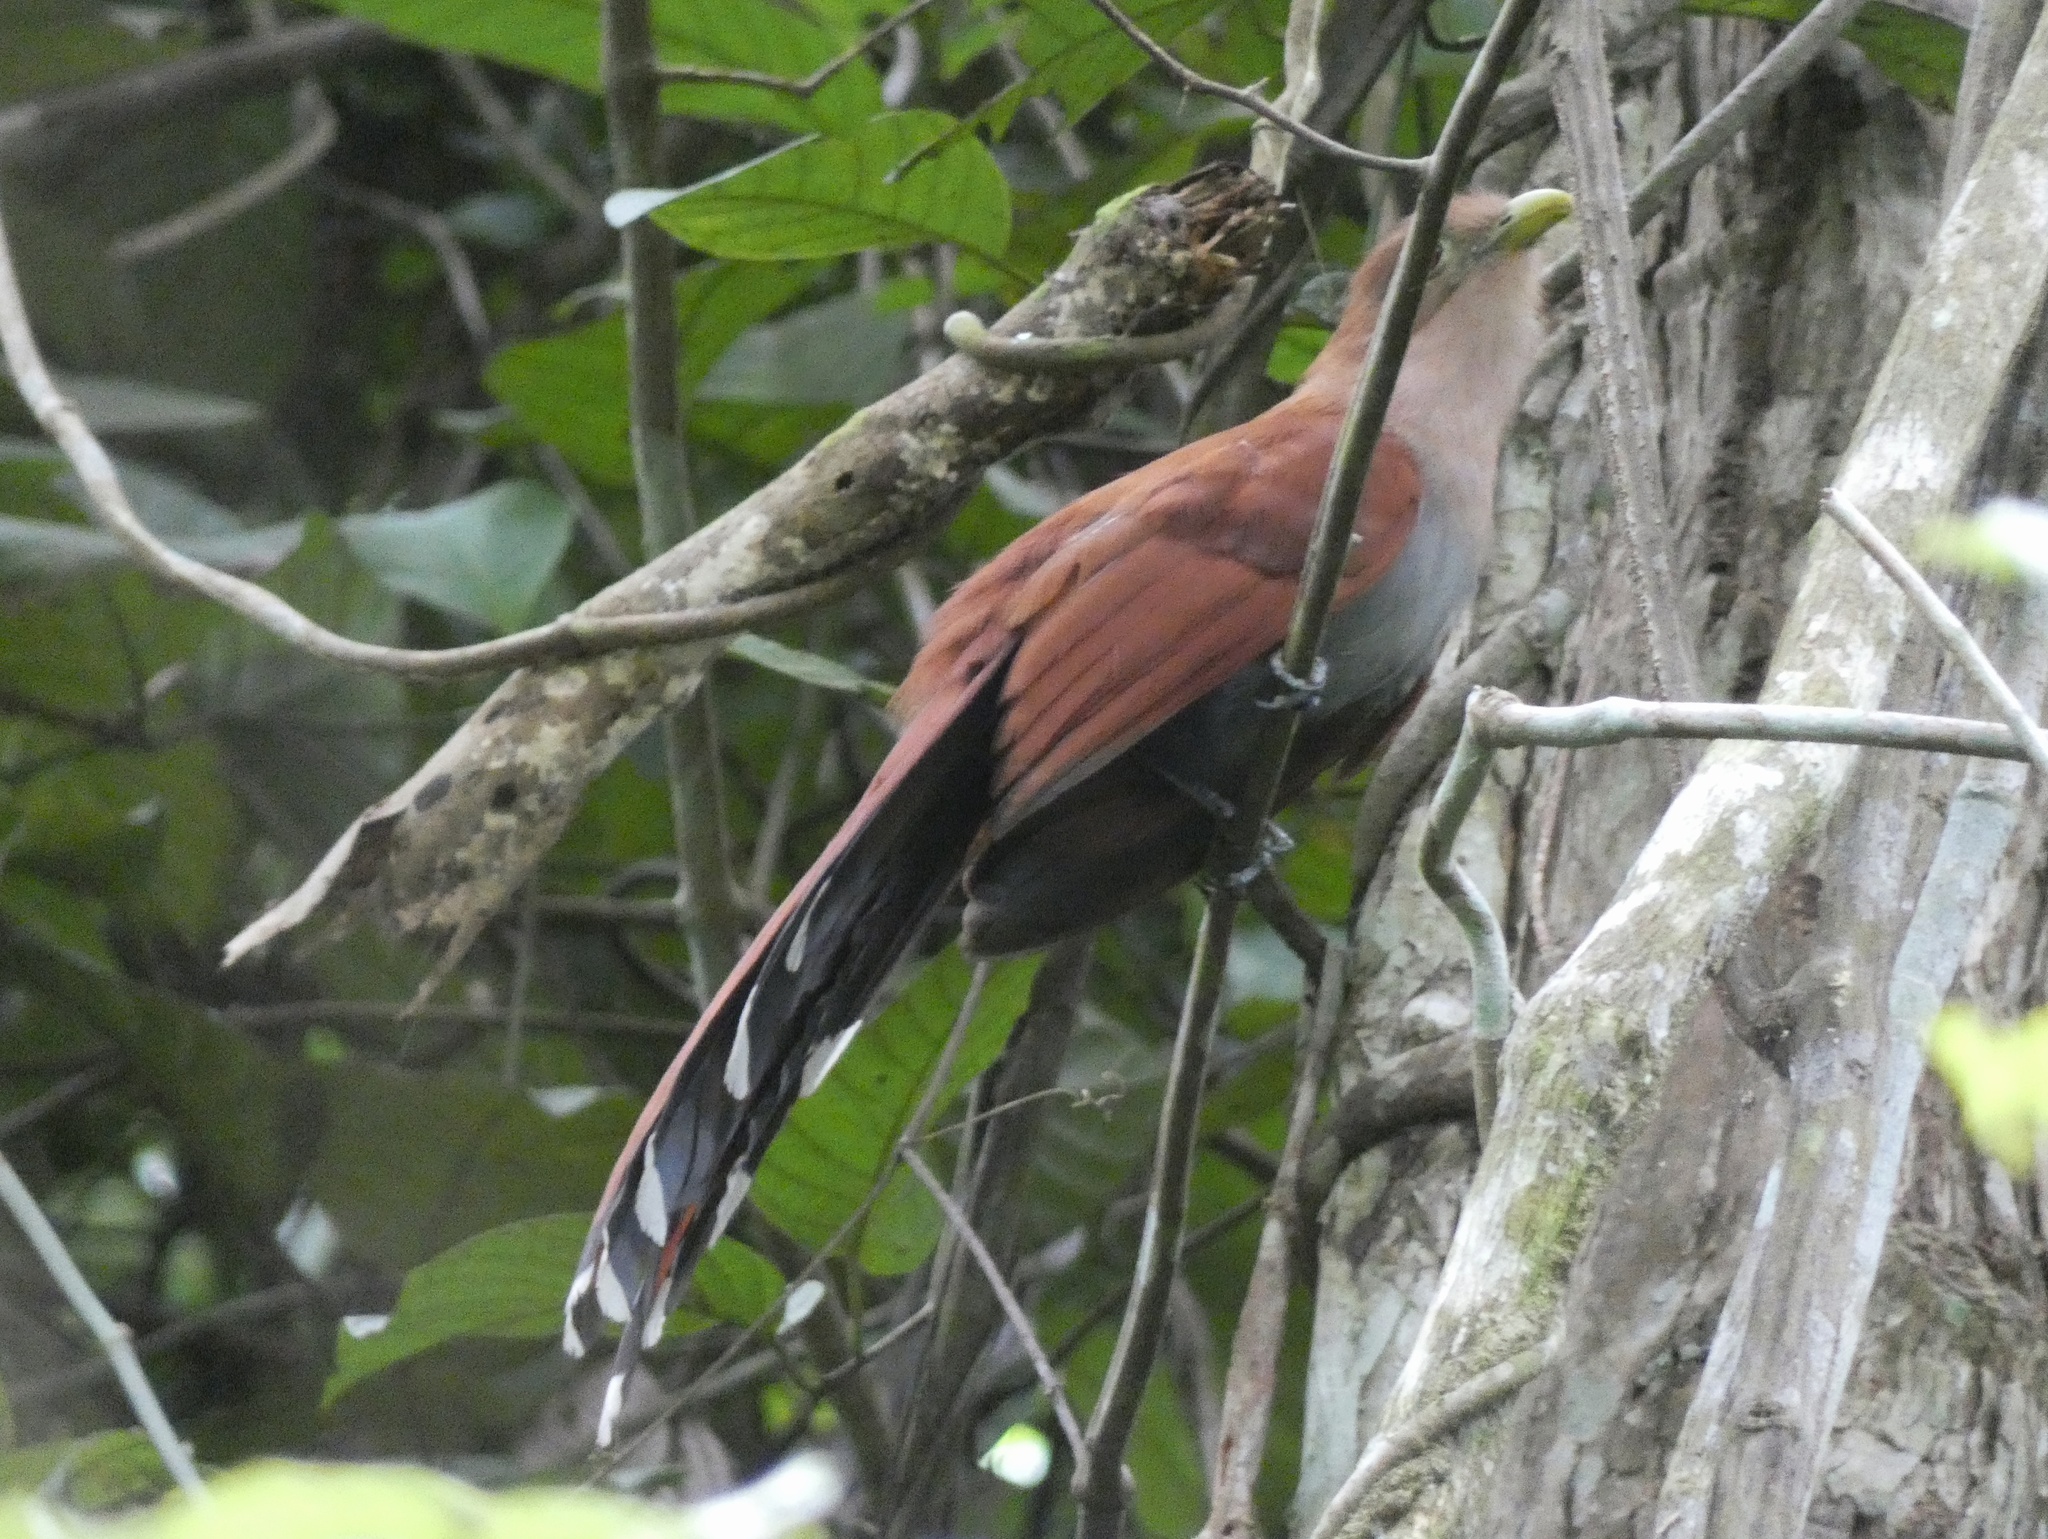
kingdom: Animalia
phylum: Chordata
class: Aves
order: Cuculiformes
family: Cuculidae
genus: Piaya
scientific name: Piaya cayana
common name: Squirrel cuckoo
